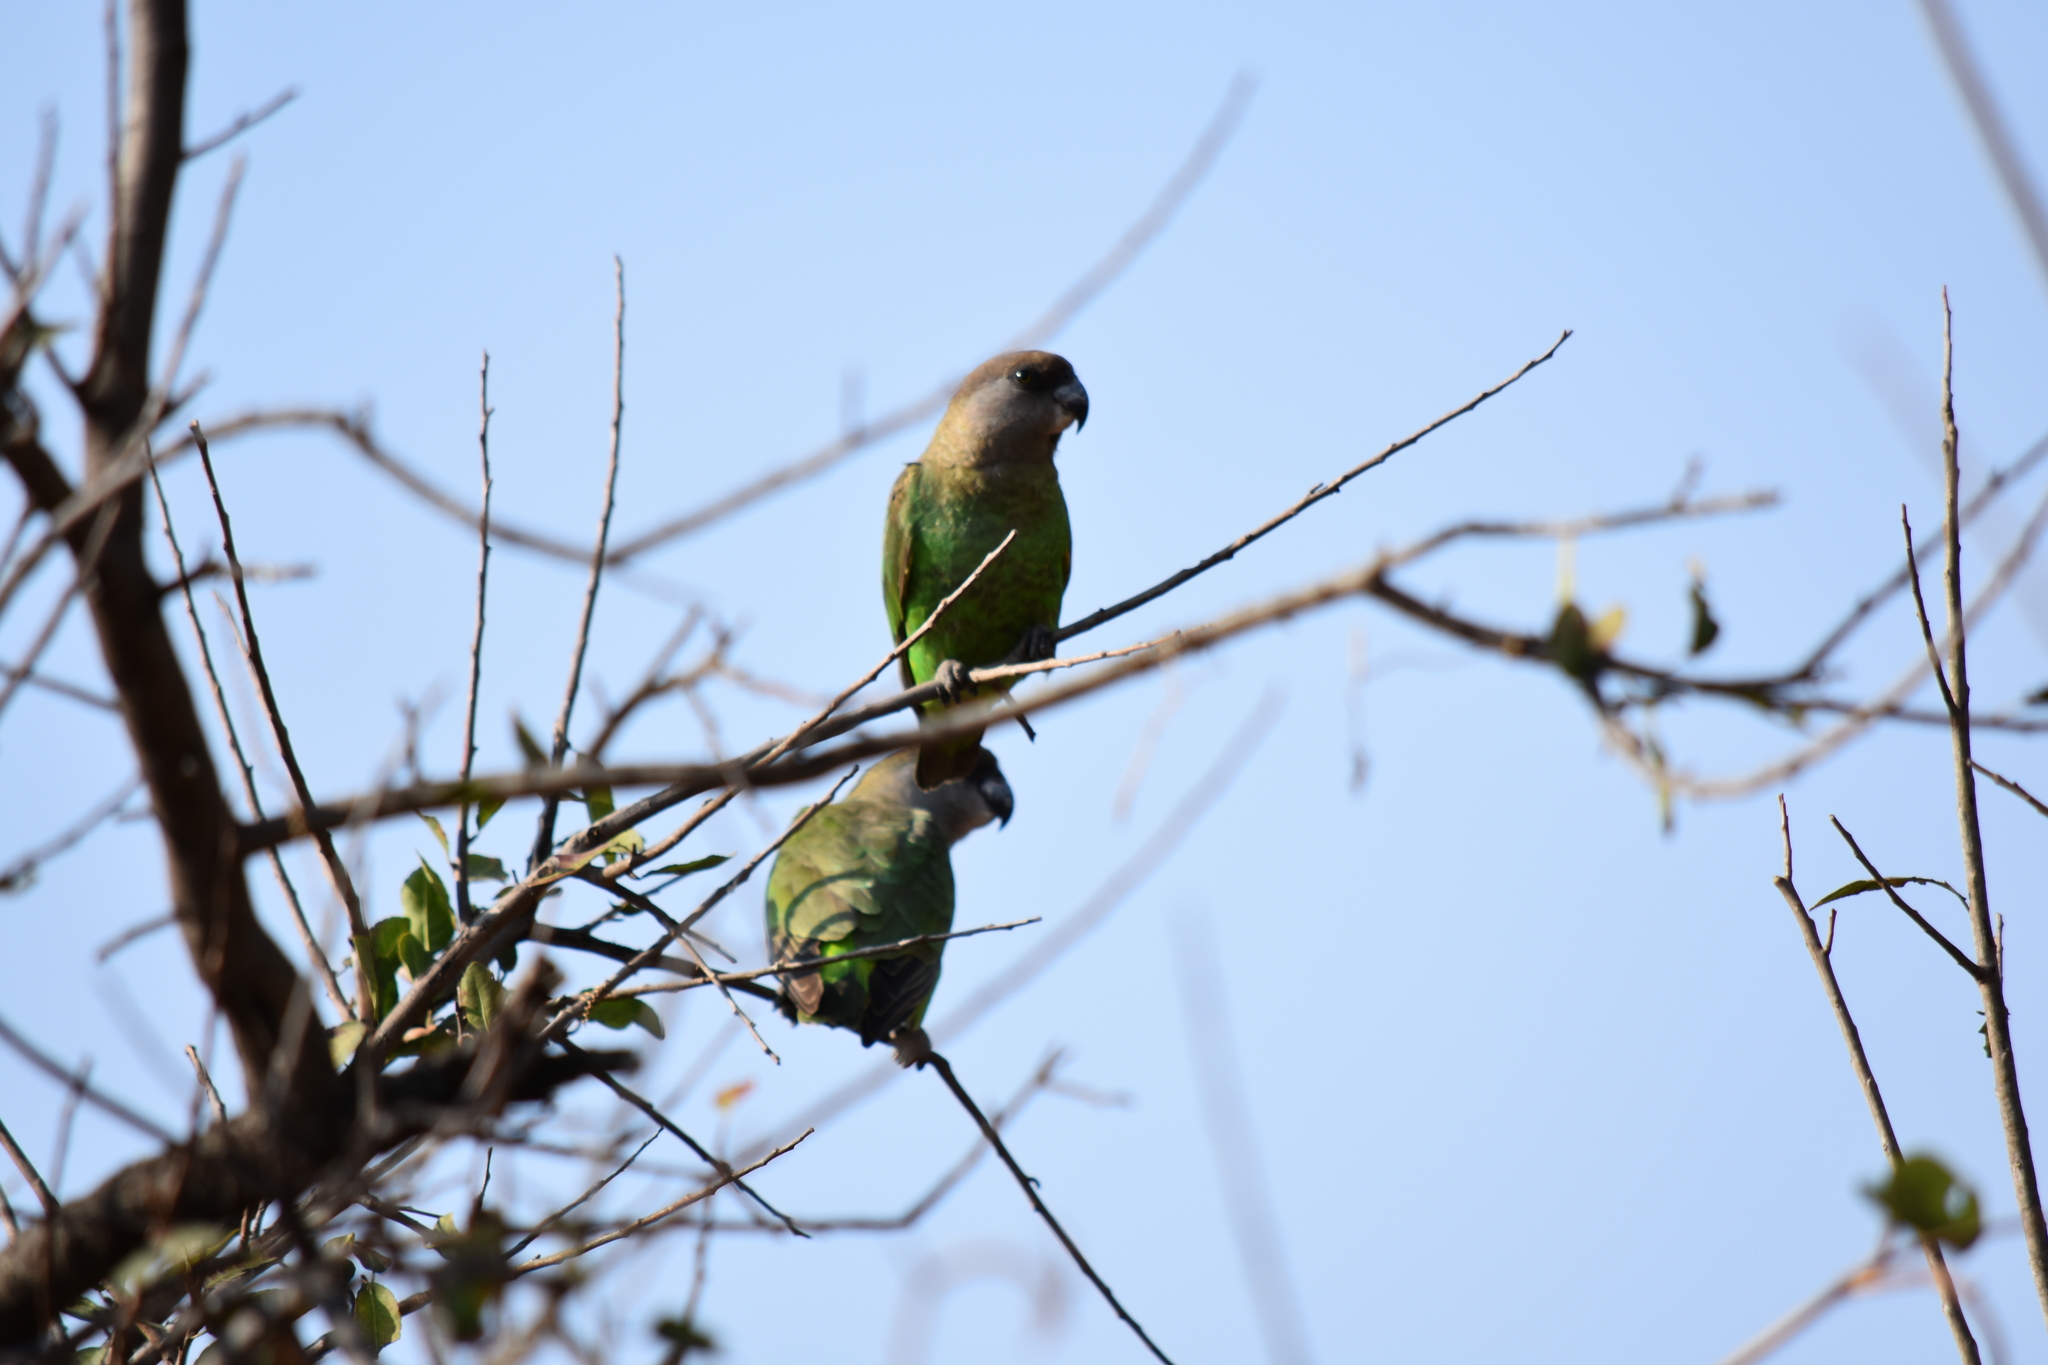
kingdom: Animalia
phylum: Chordata
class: Aves
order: Psittaciformes
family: Psittacidae
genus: Poicephalus
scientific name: Poicephalus cryptoxanthus
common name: Brown-headed parrot
